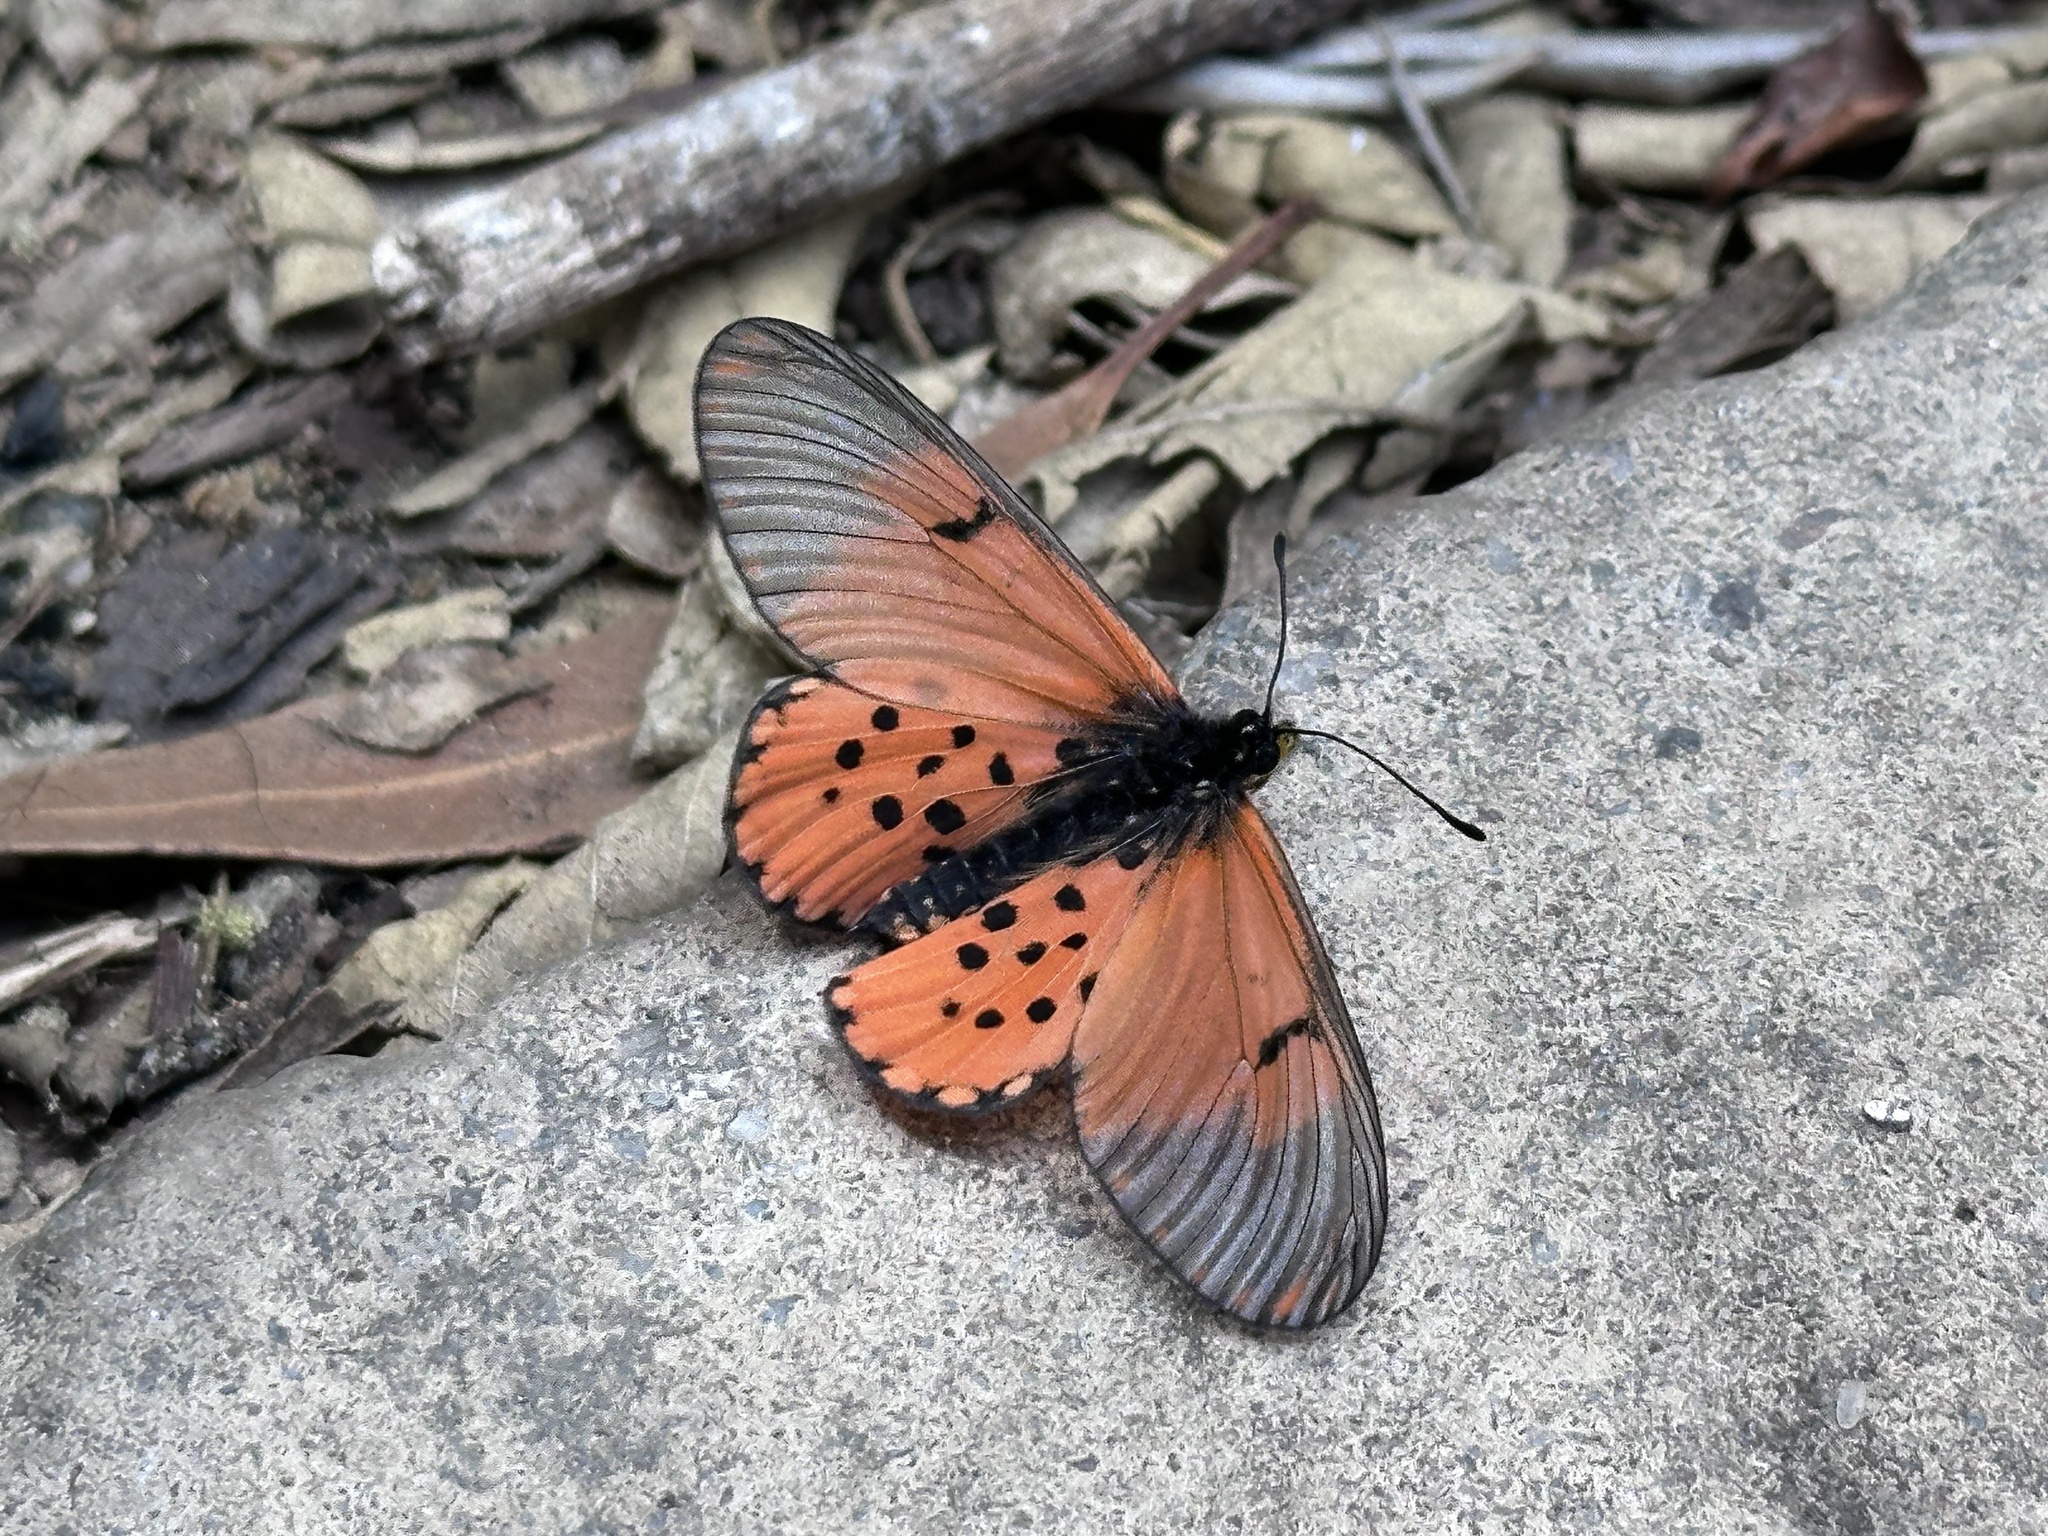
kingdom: Animalia
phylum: Arthropoda
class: Insecta
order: Lepidoptera
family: Nymphalidae
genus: Acraea
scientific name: Acraea horta
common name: Garden acraea
